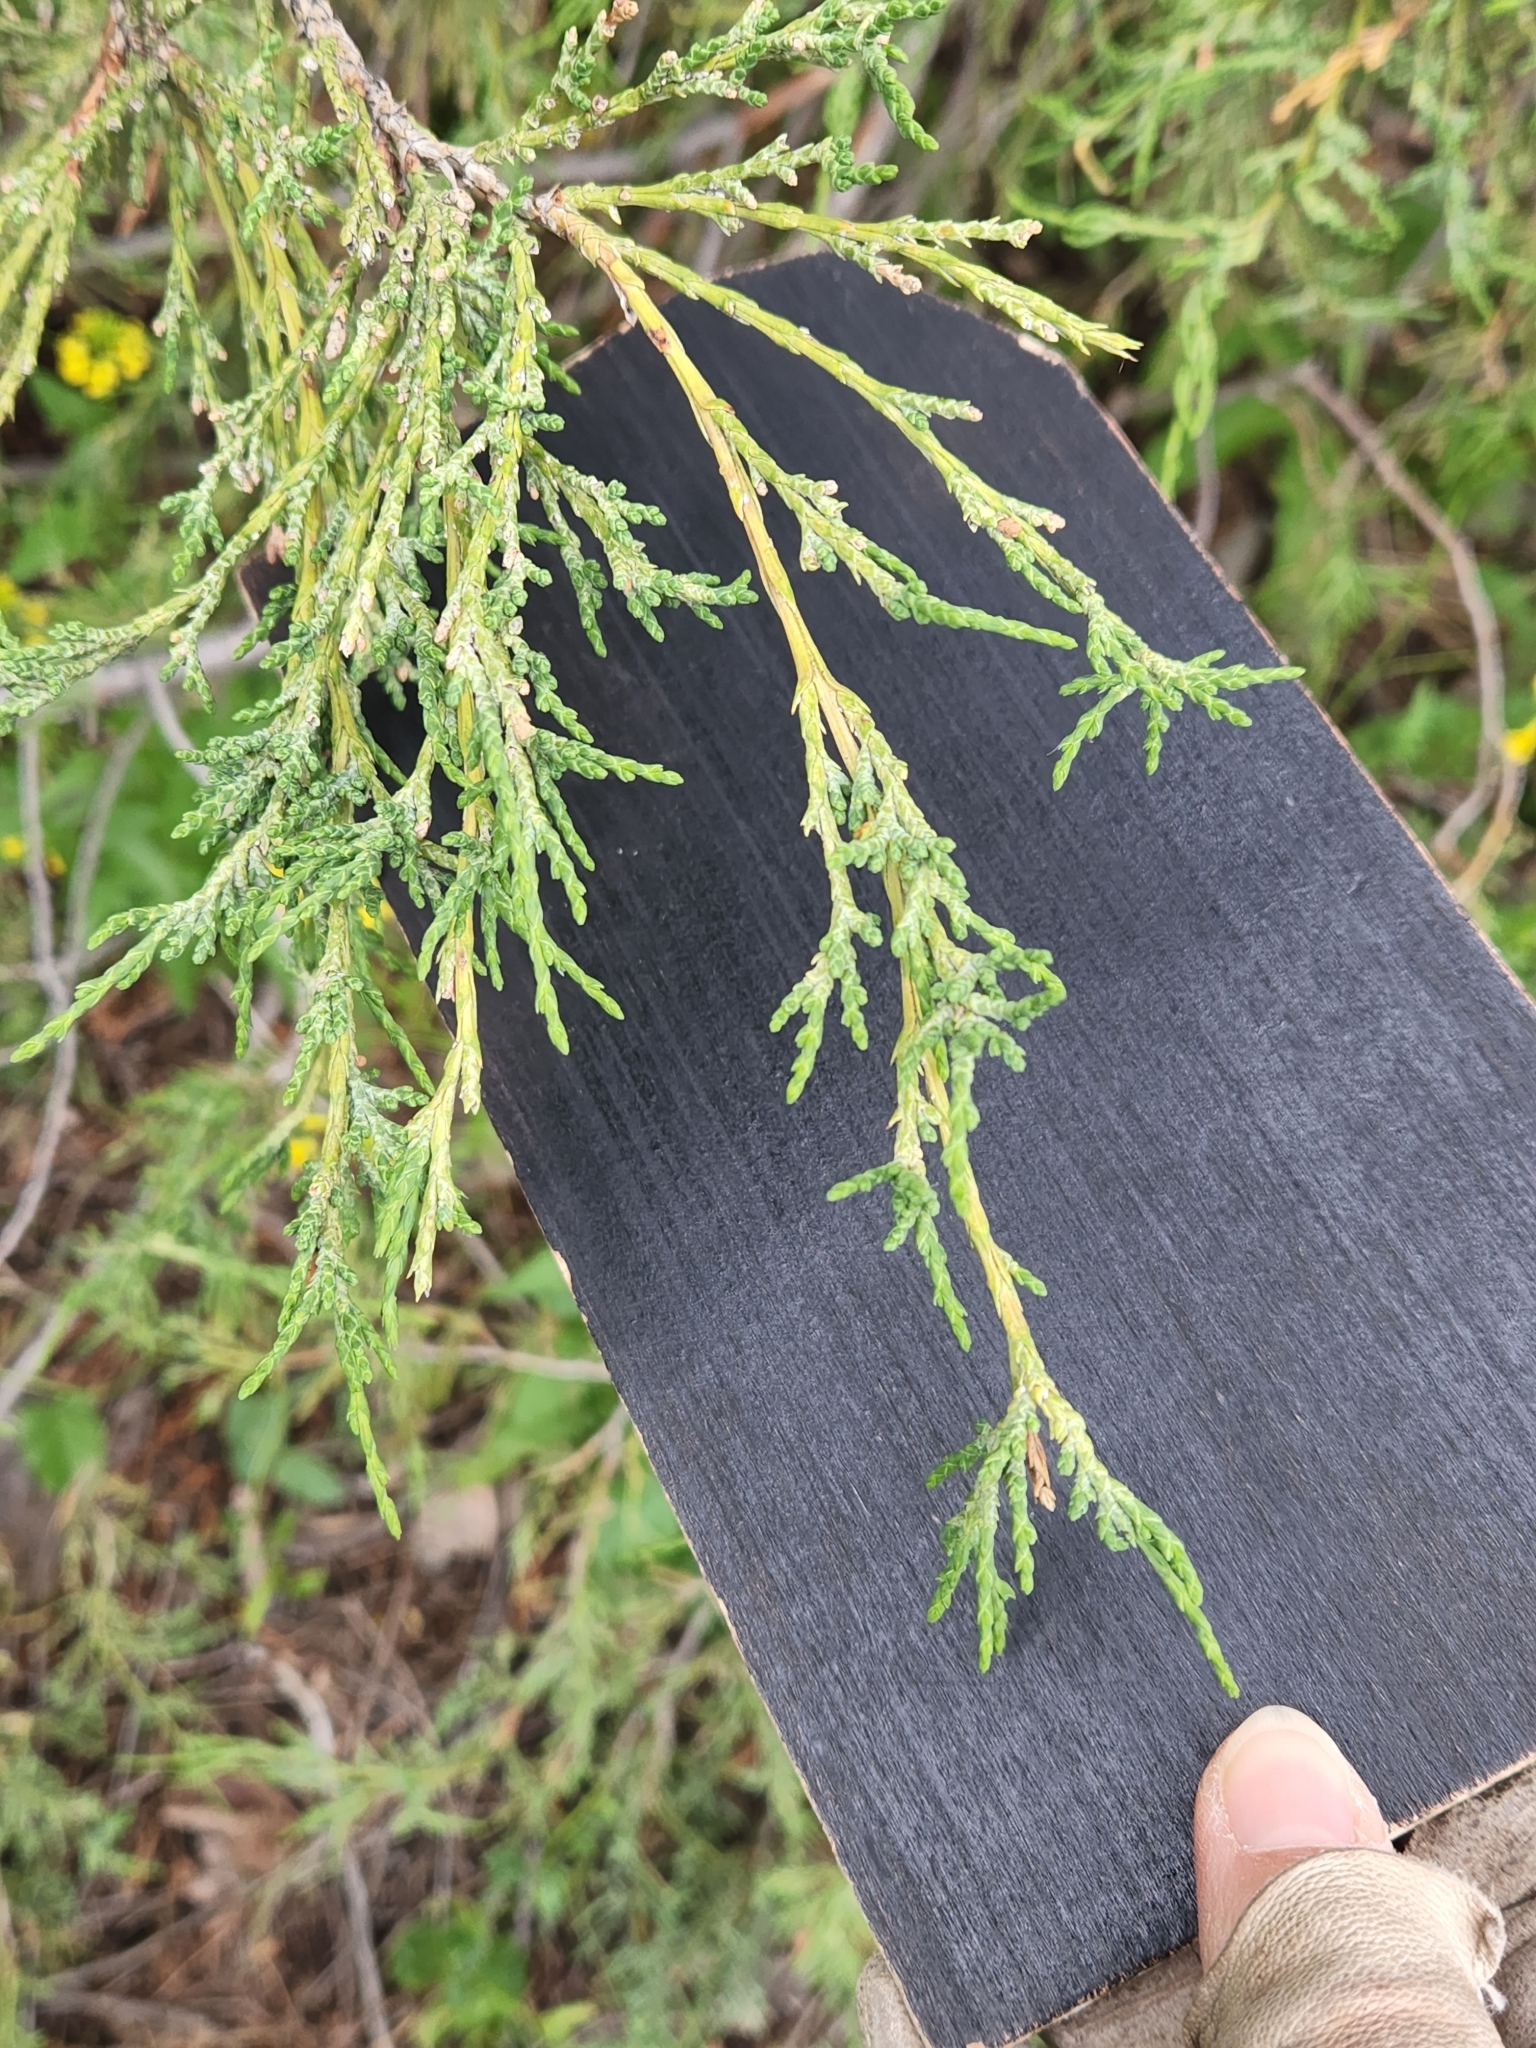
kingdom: Plantae
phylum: Tracheophyta
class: Pinopsida
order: Pinales
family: Cupressaceae
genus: Juniperus
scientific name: Juniperus scopulorum
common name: Rocky mountain juniper
